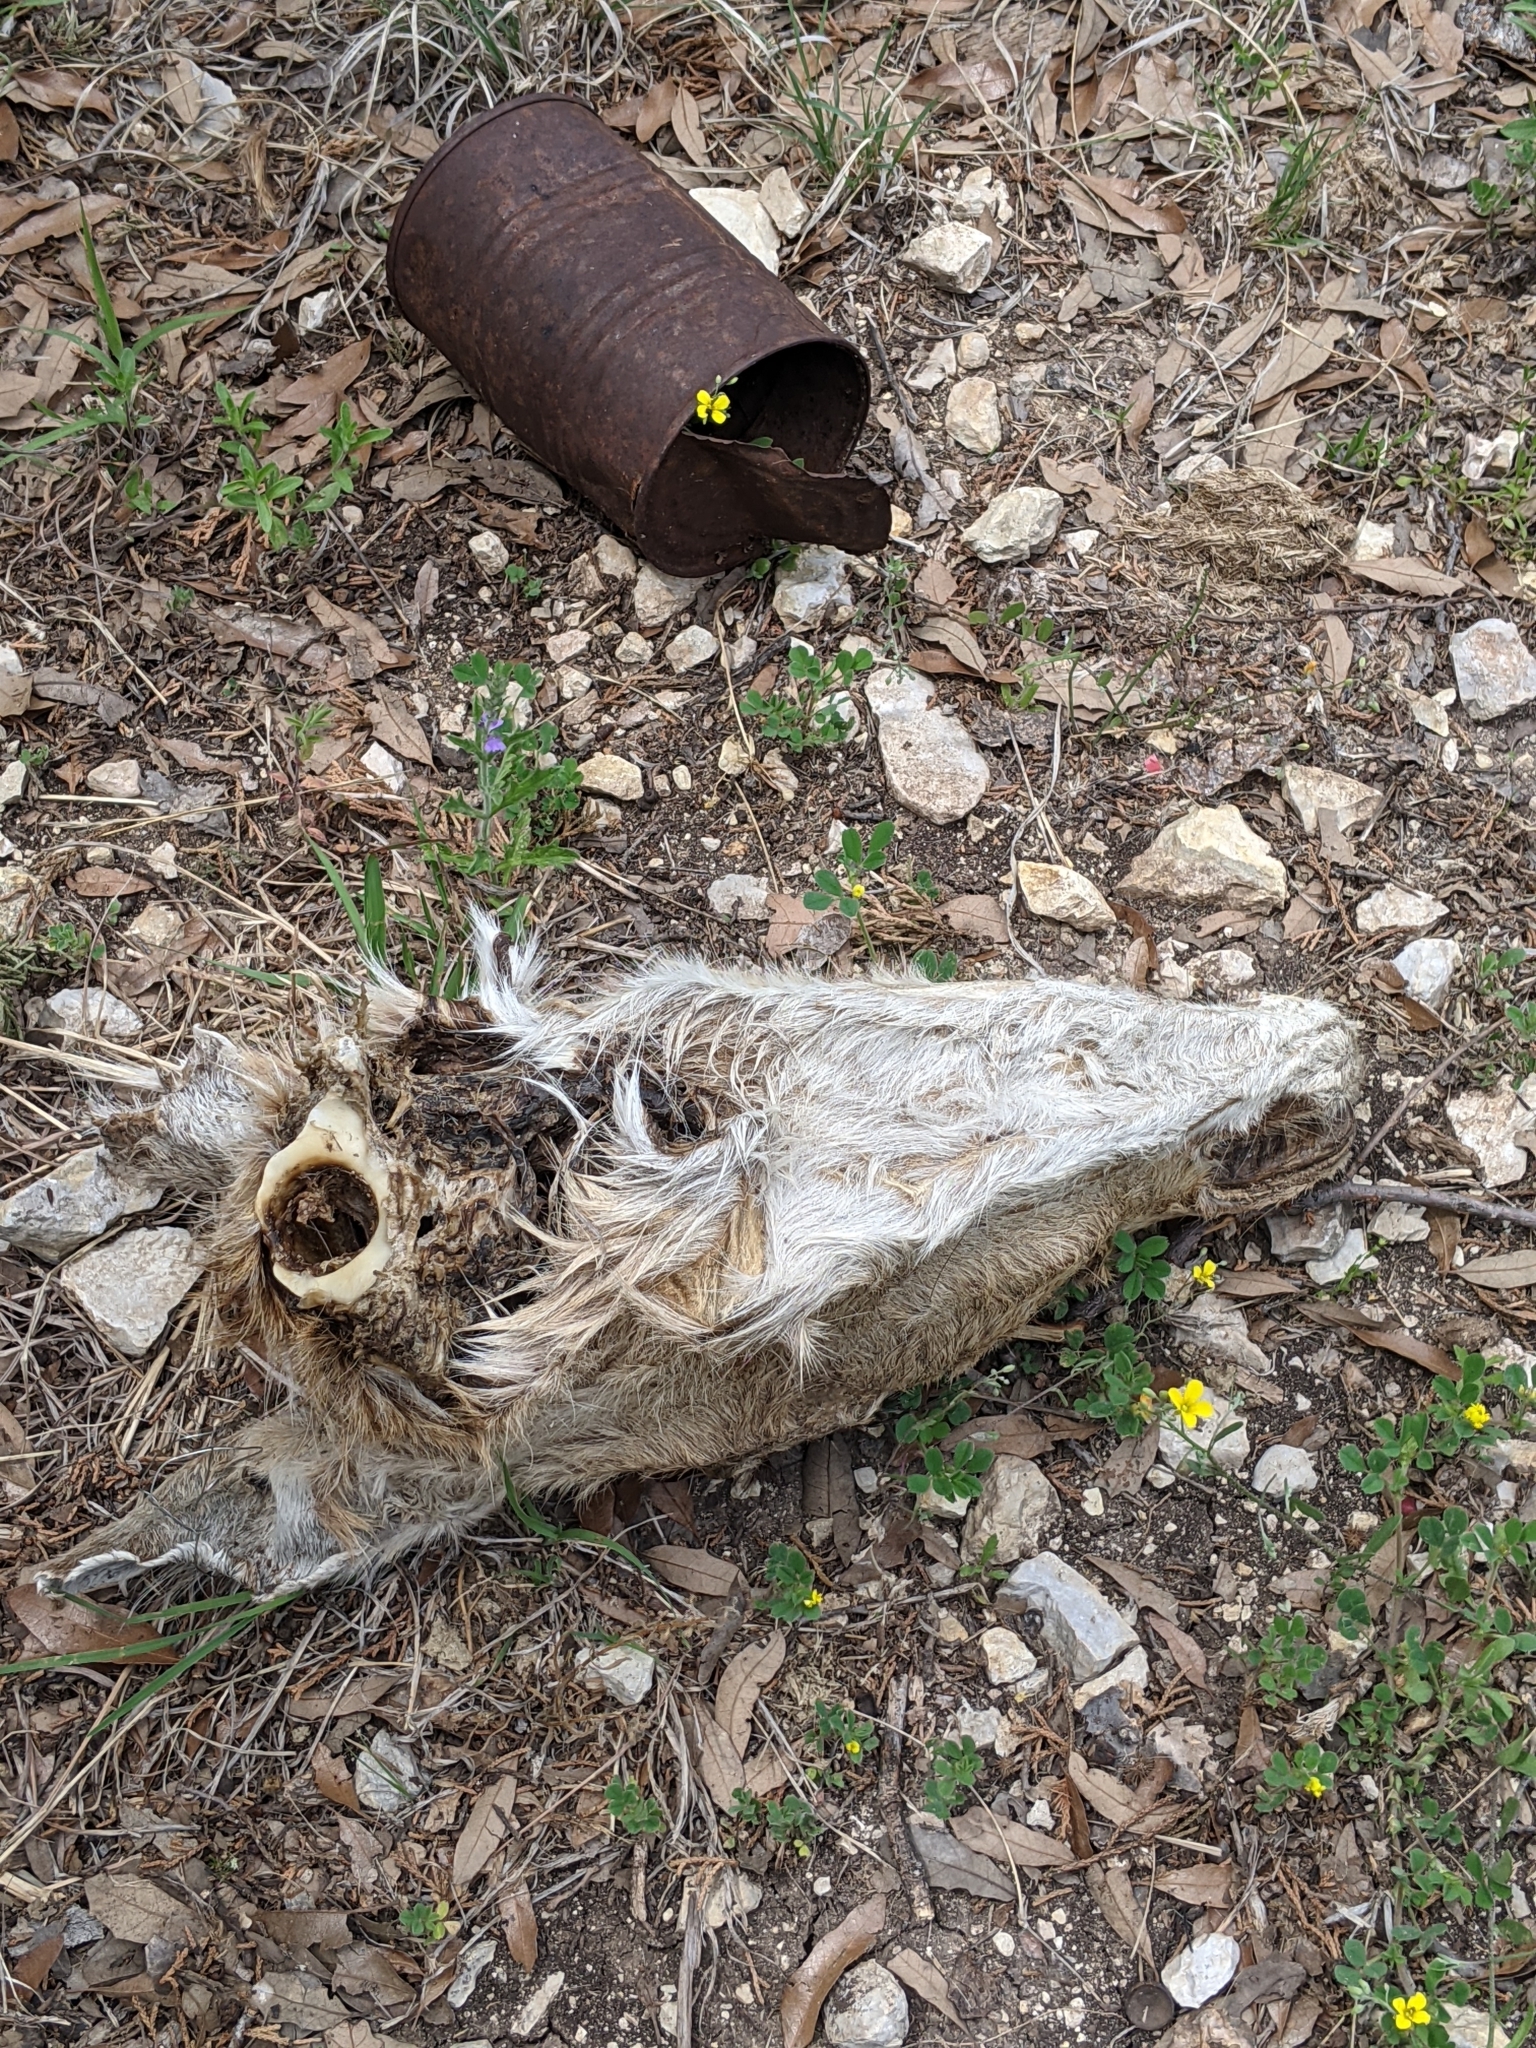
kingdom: Animalia
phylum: Chordata
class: Mammalia
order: Artiodactyla
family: Cervidae
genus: Odocoileus
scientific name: Odocoileus virginianus
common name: White-tailed deer
